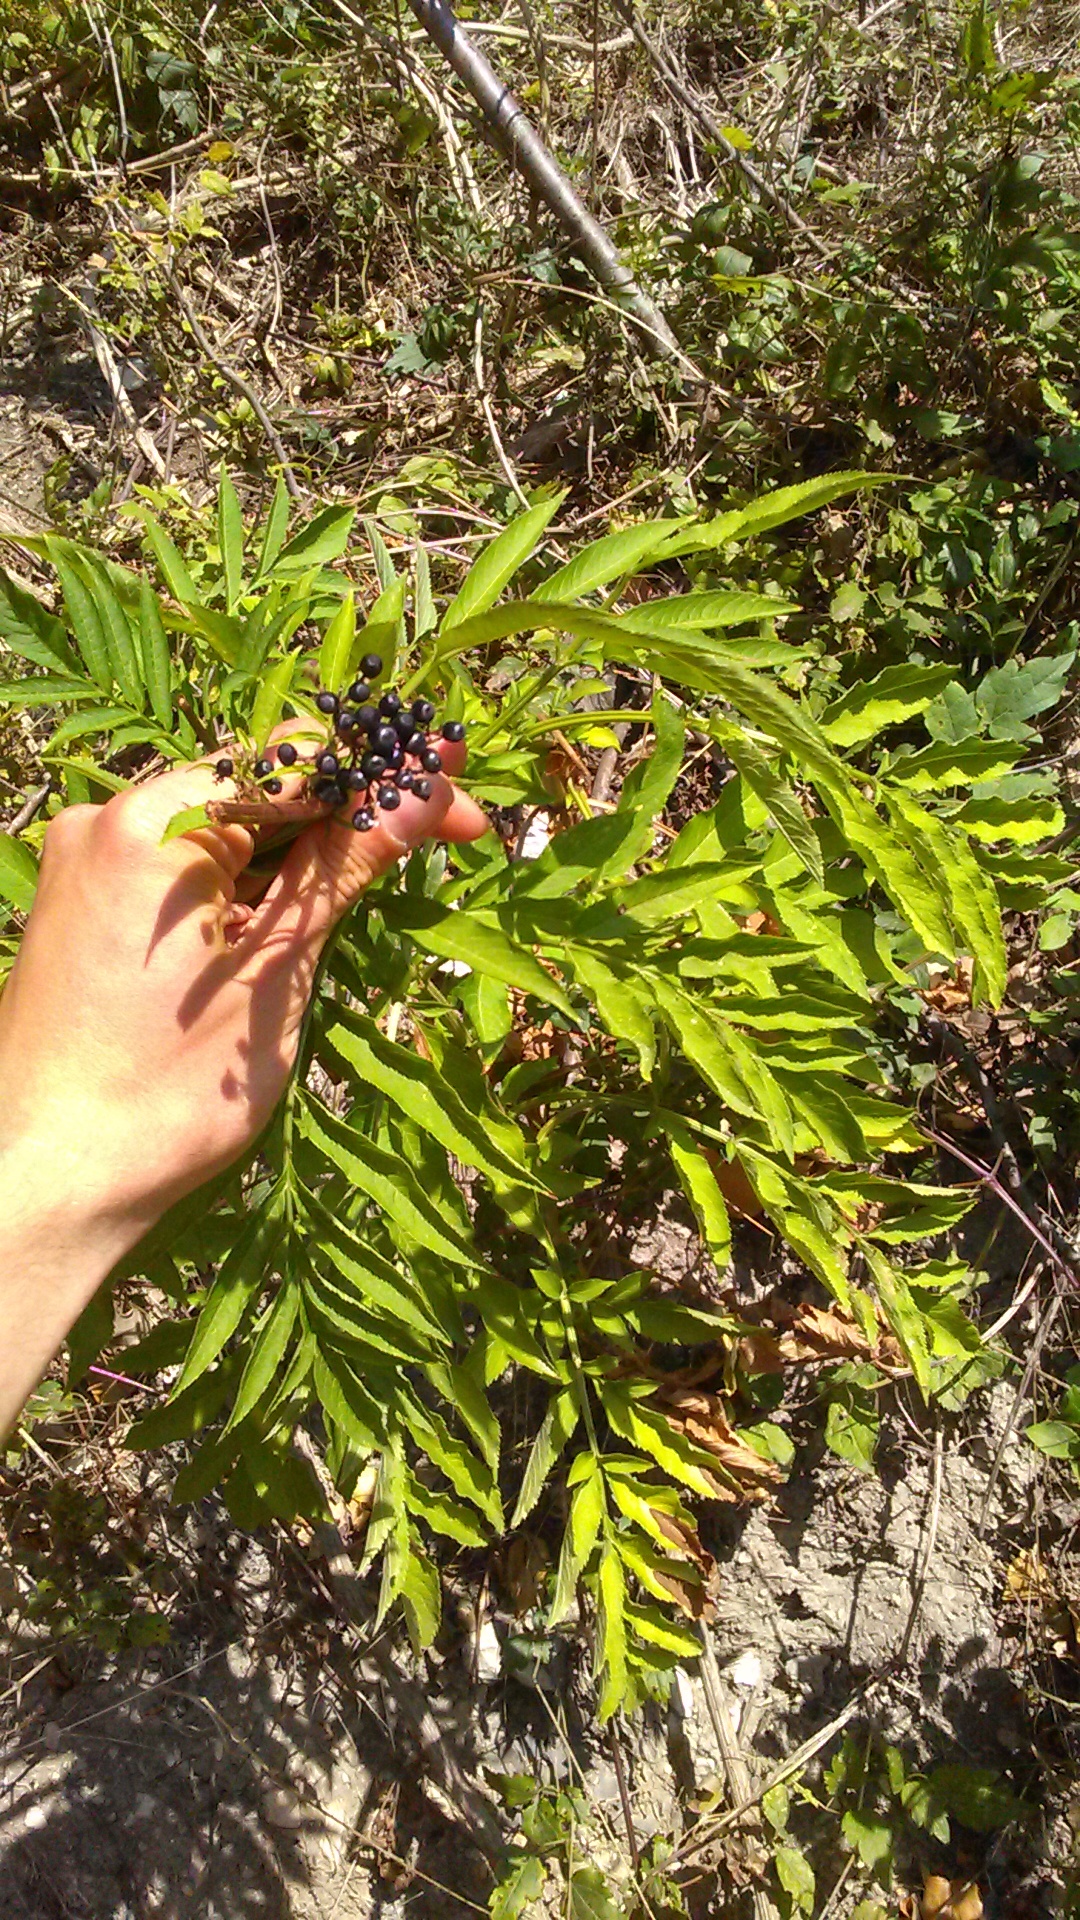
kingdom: Plantae
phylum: Tracheophyta
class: Magnoliopsida
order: Dipsacales
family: Viburnaceae
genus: Sambucus
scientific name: Sambucus ebulus
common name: Dwarf elder
